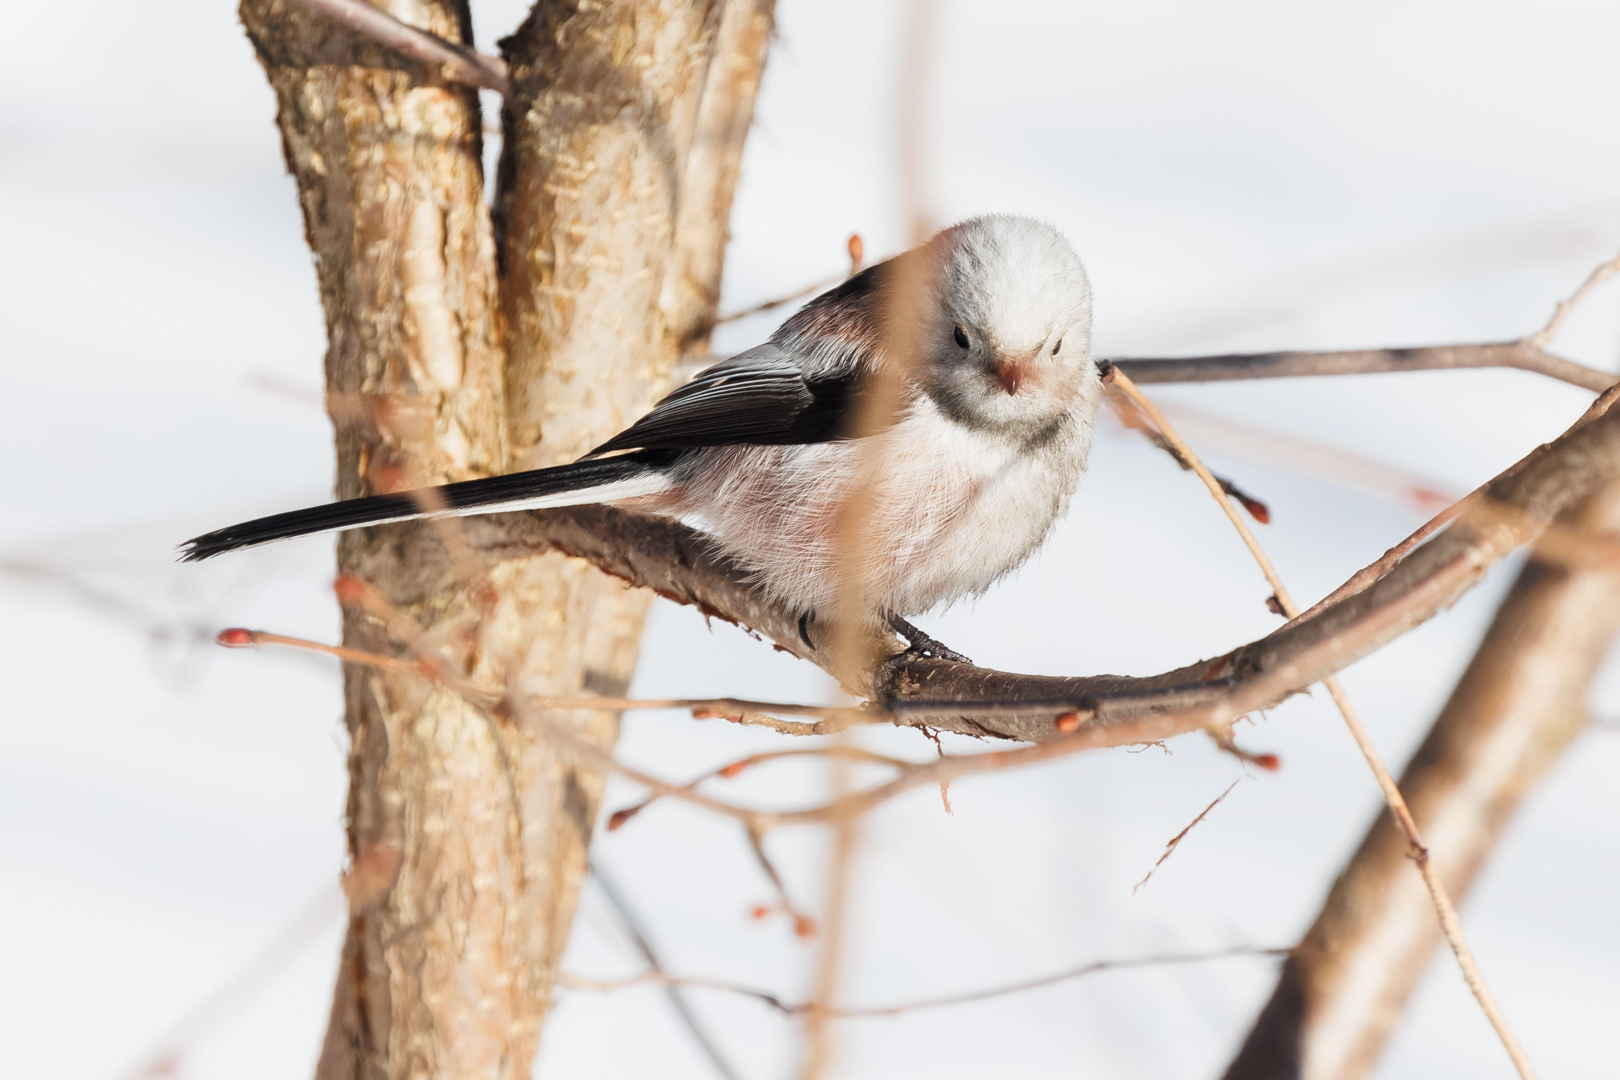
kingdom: Animalia
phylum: Chordata
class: Aves
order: Passeriformes
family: Aegithalidae
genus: Aegithalos
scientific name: Aegithalos caudatus
